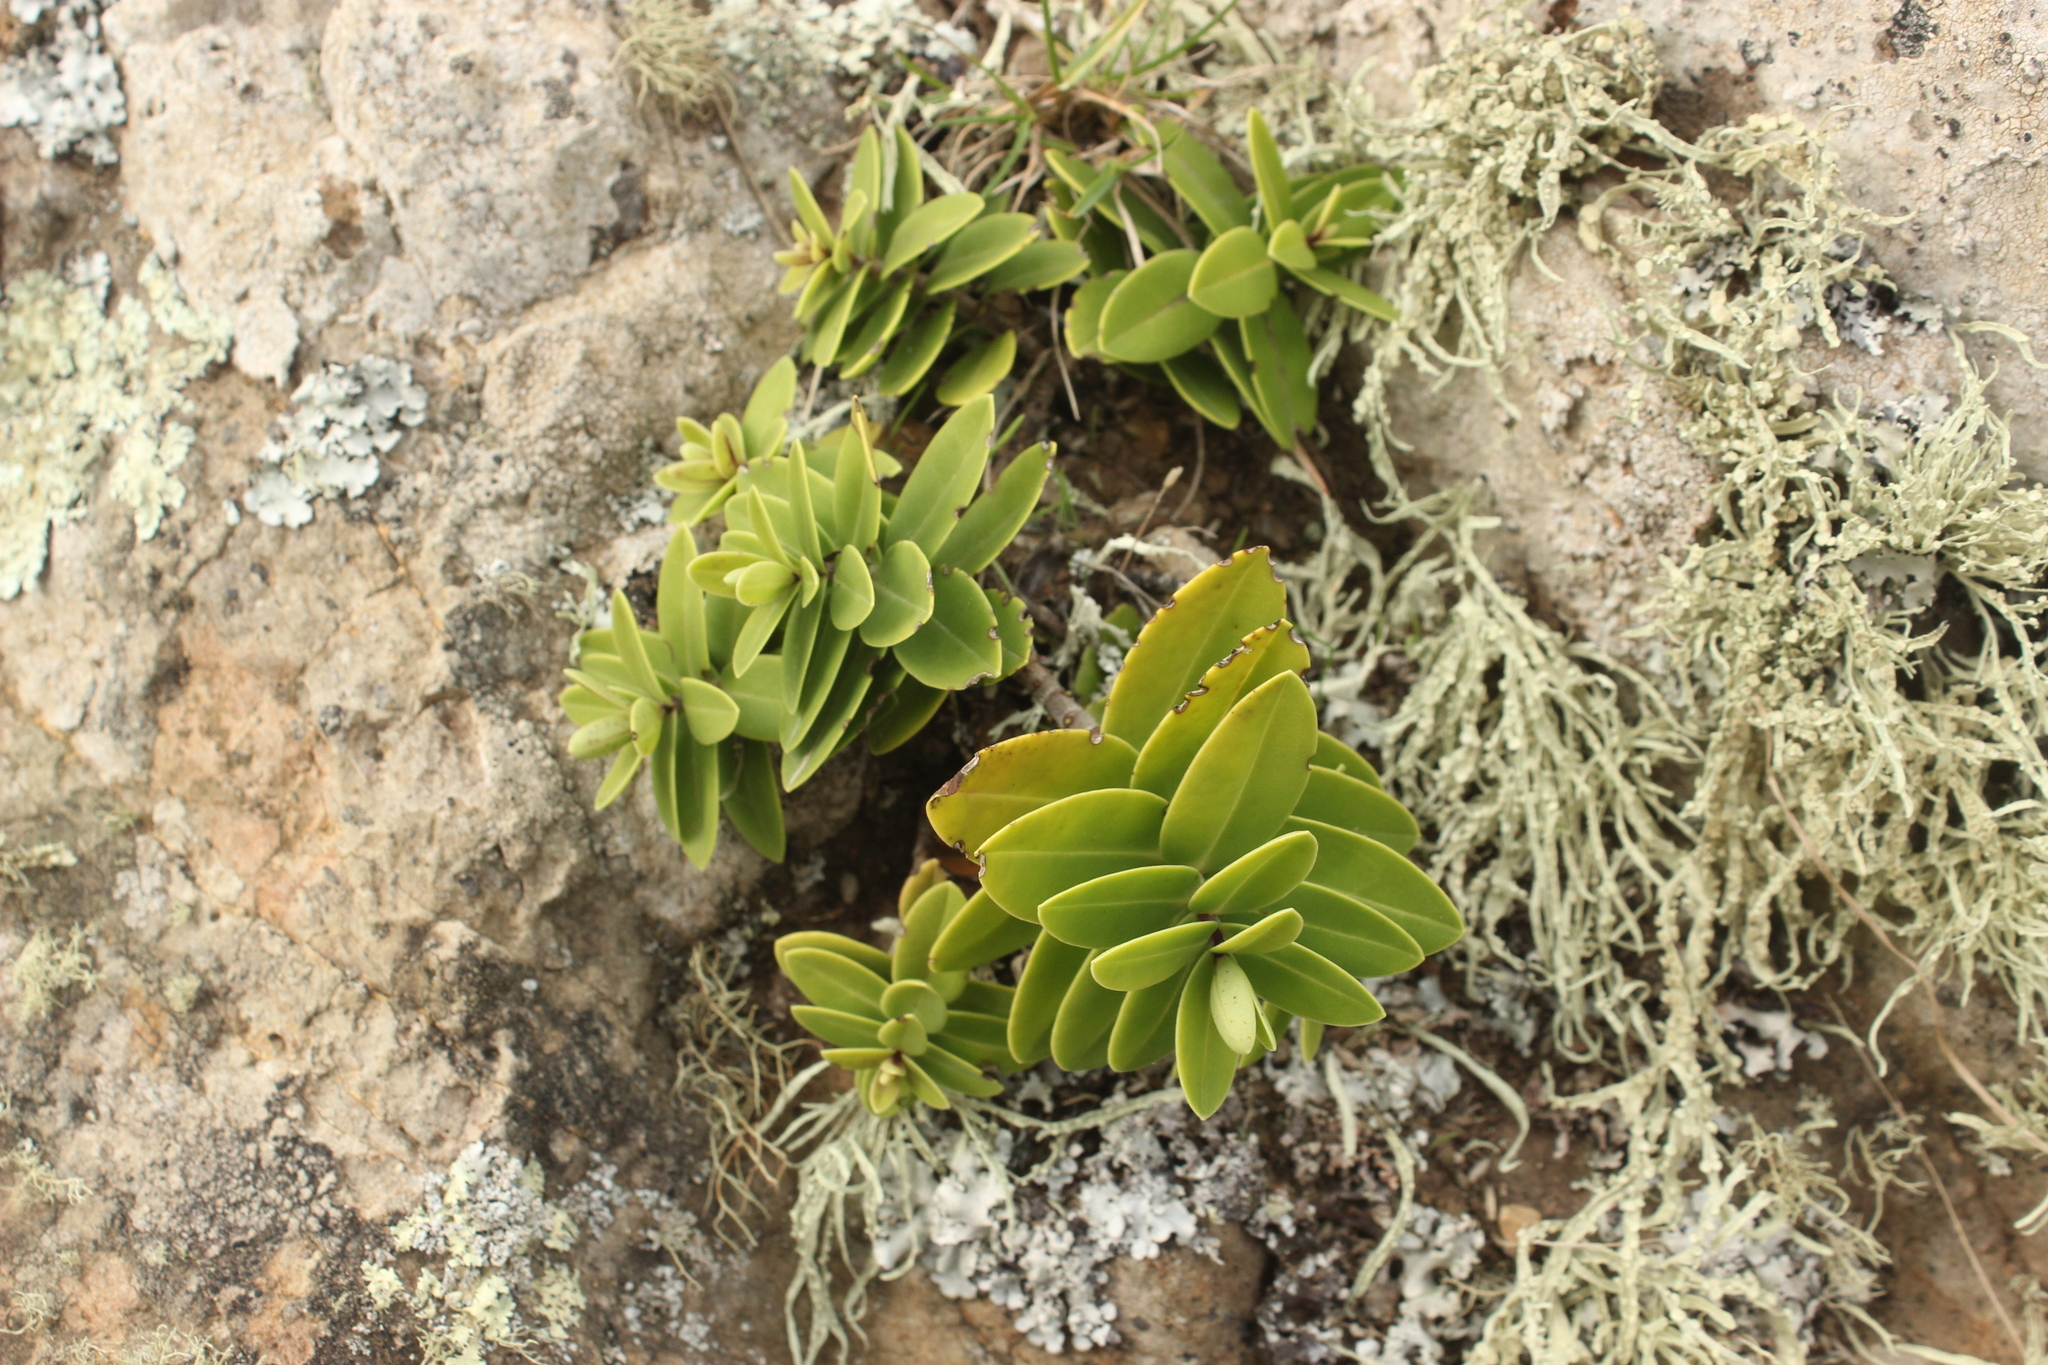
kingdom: Plantae
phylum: Tracheophyta
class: Magnoliopsida
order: Lamiales
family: Plantaginaceae
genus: Veronica
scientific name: Veronica chathamica
